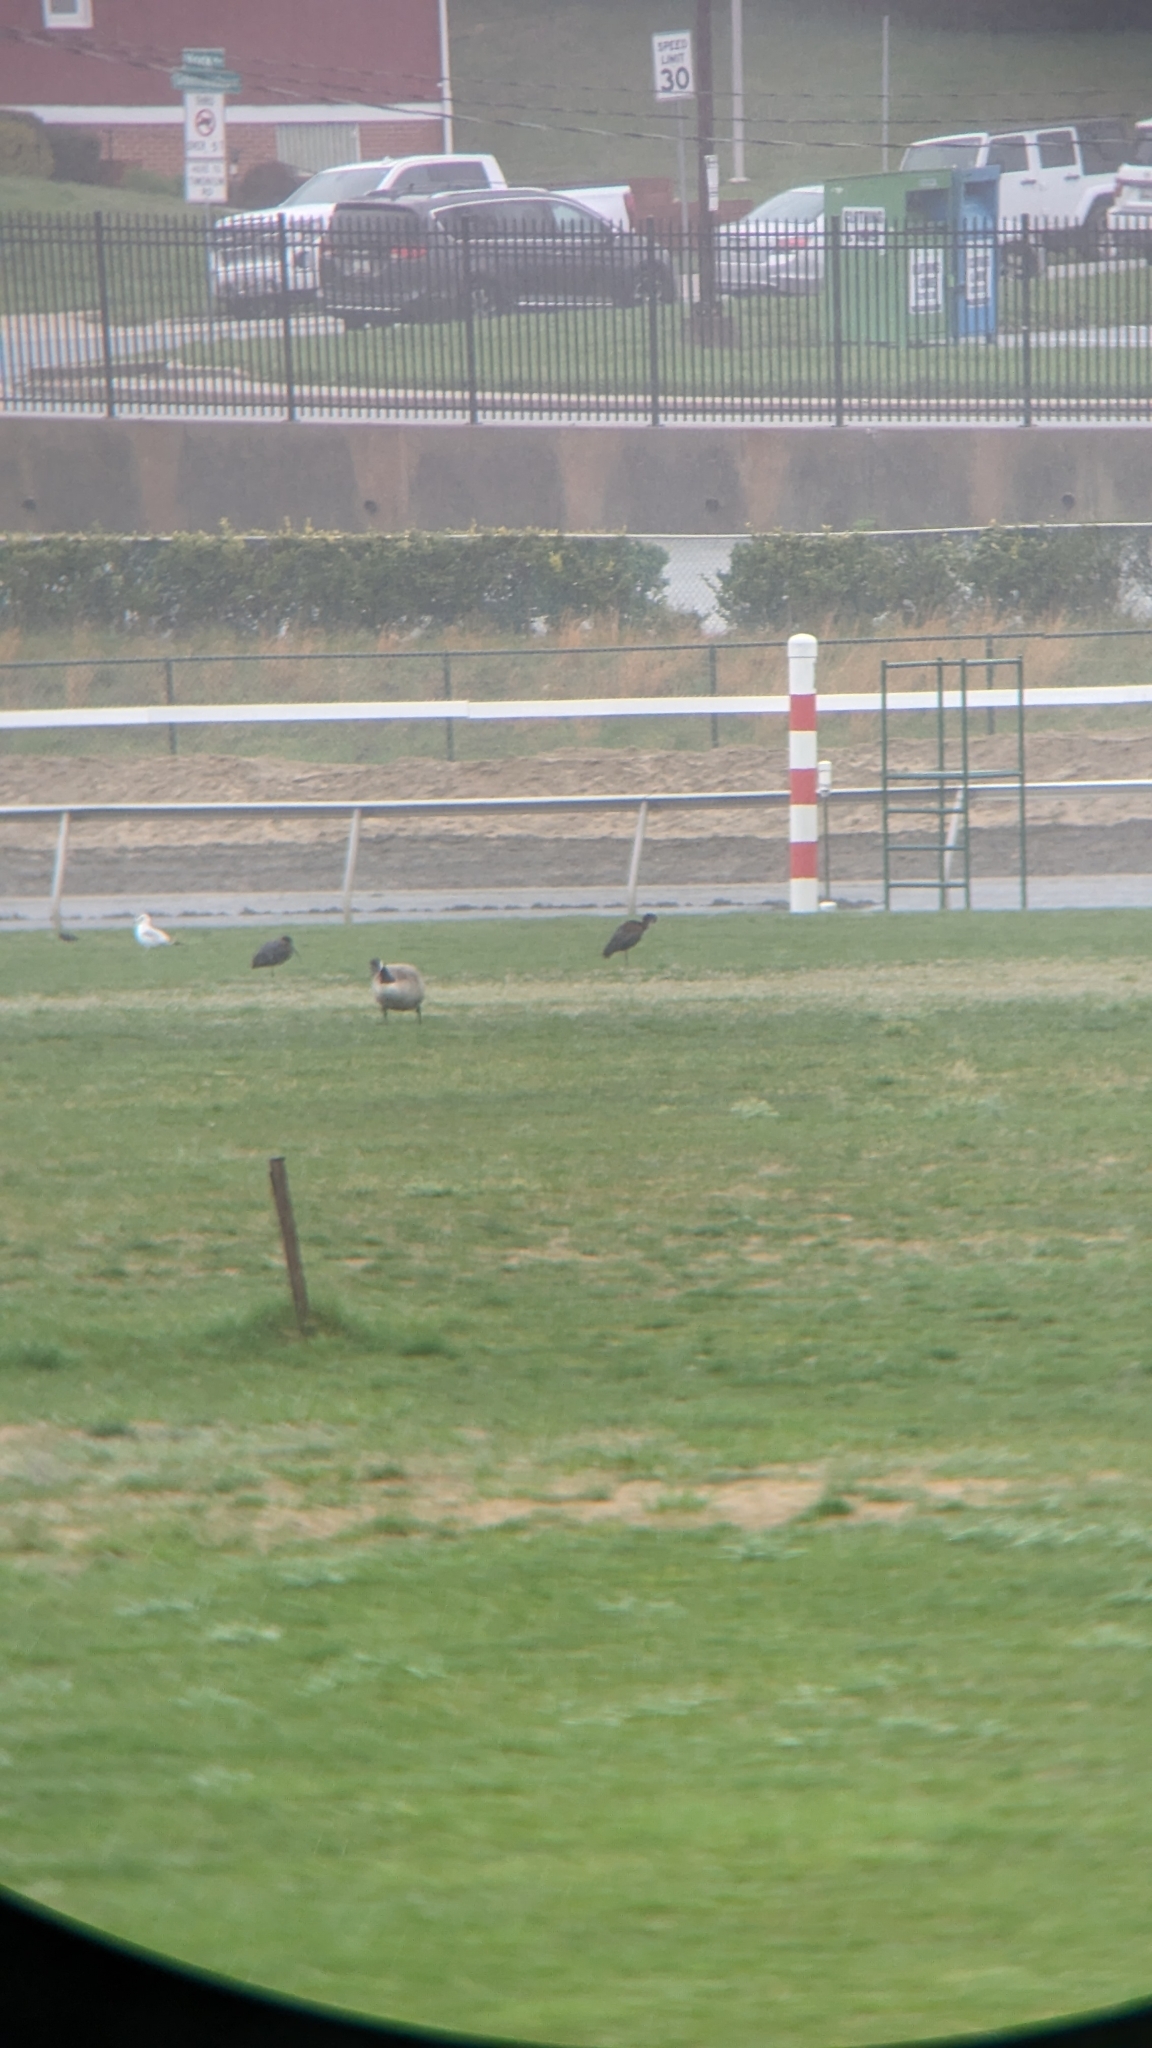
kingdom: Animalia
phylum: Chordata
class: Aves
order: Pelecaniformes
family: Threskiornithidae
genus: Plegadis
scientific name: Plegadis falcinellus
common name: Glossy ibis
